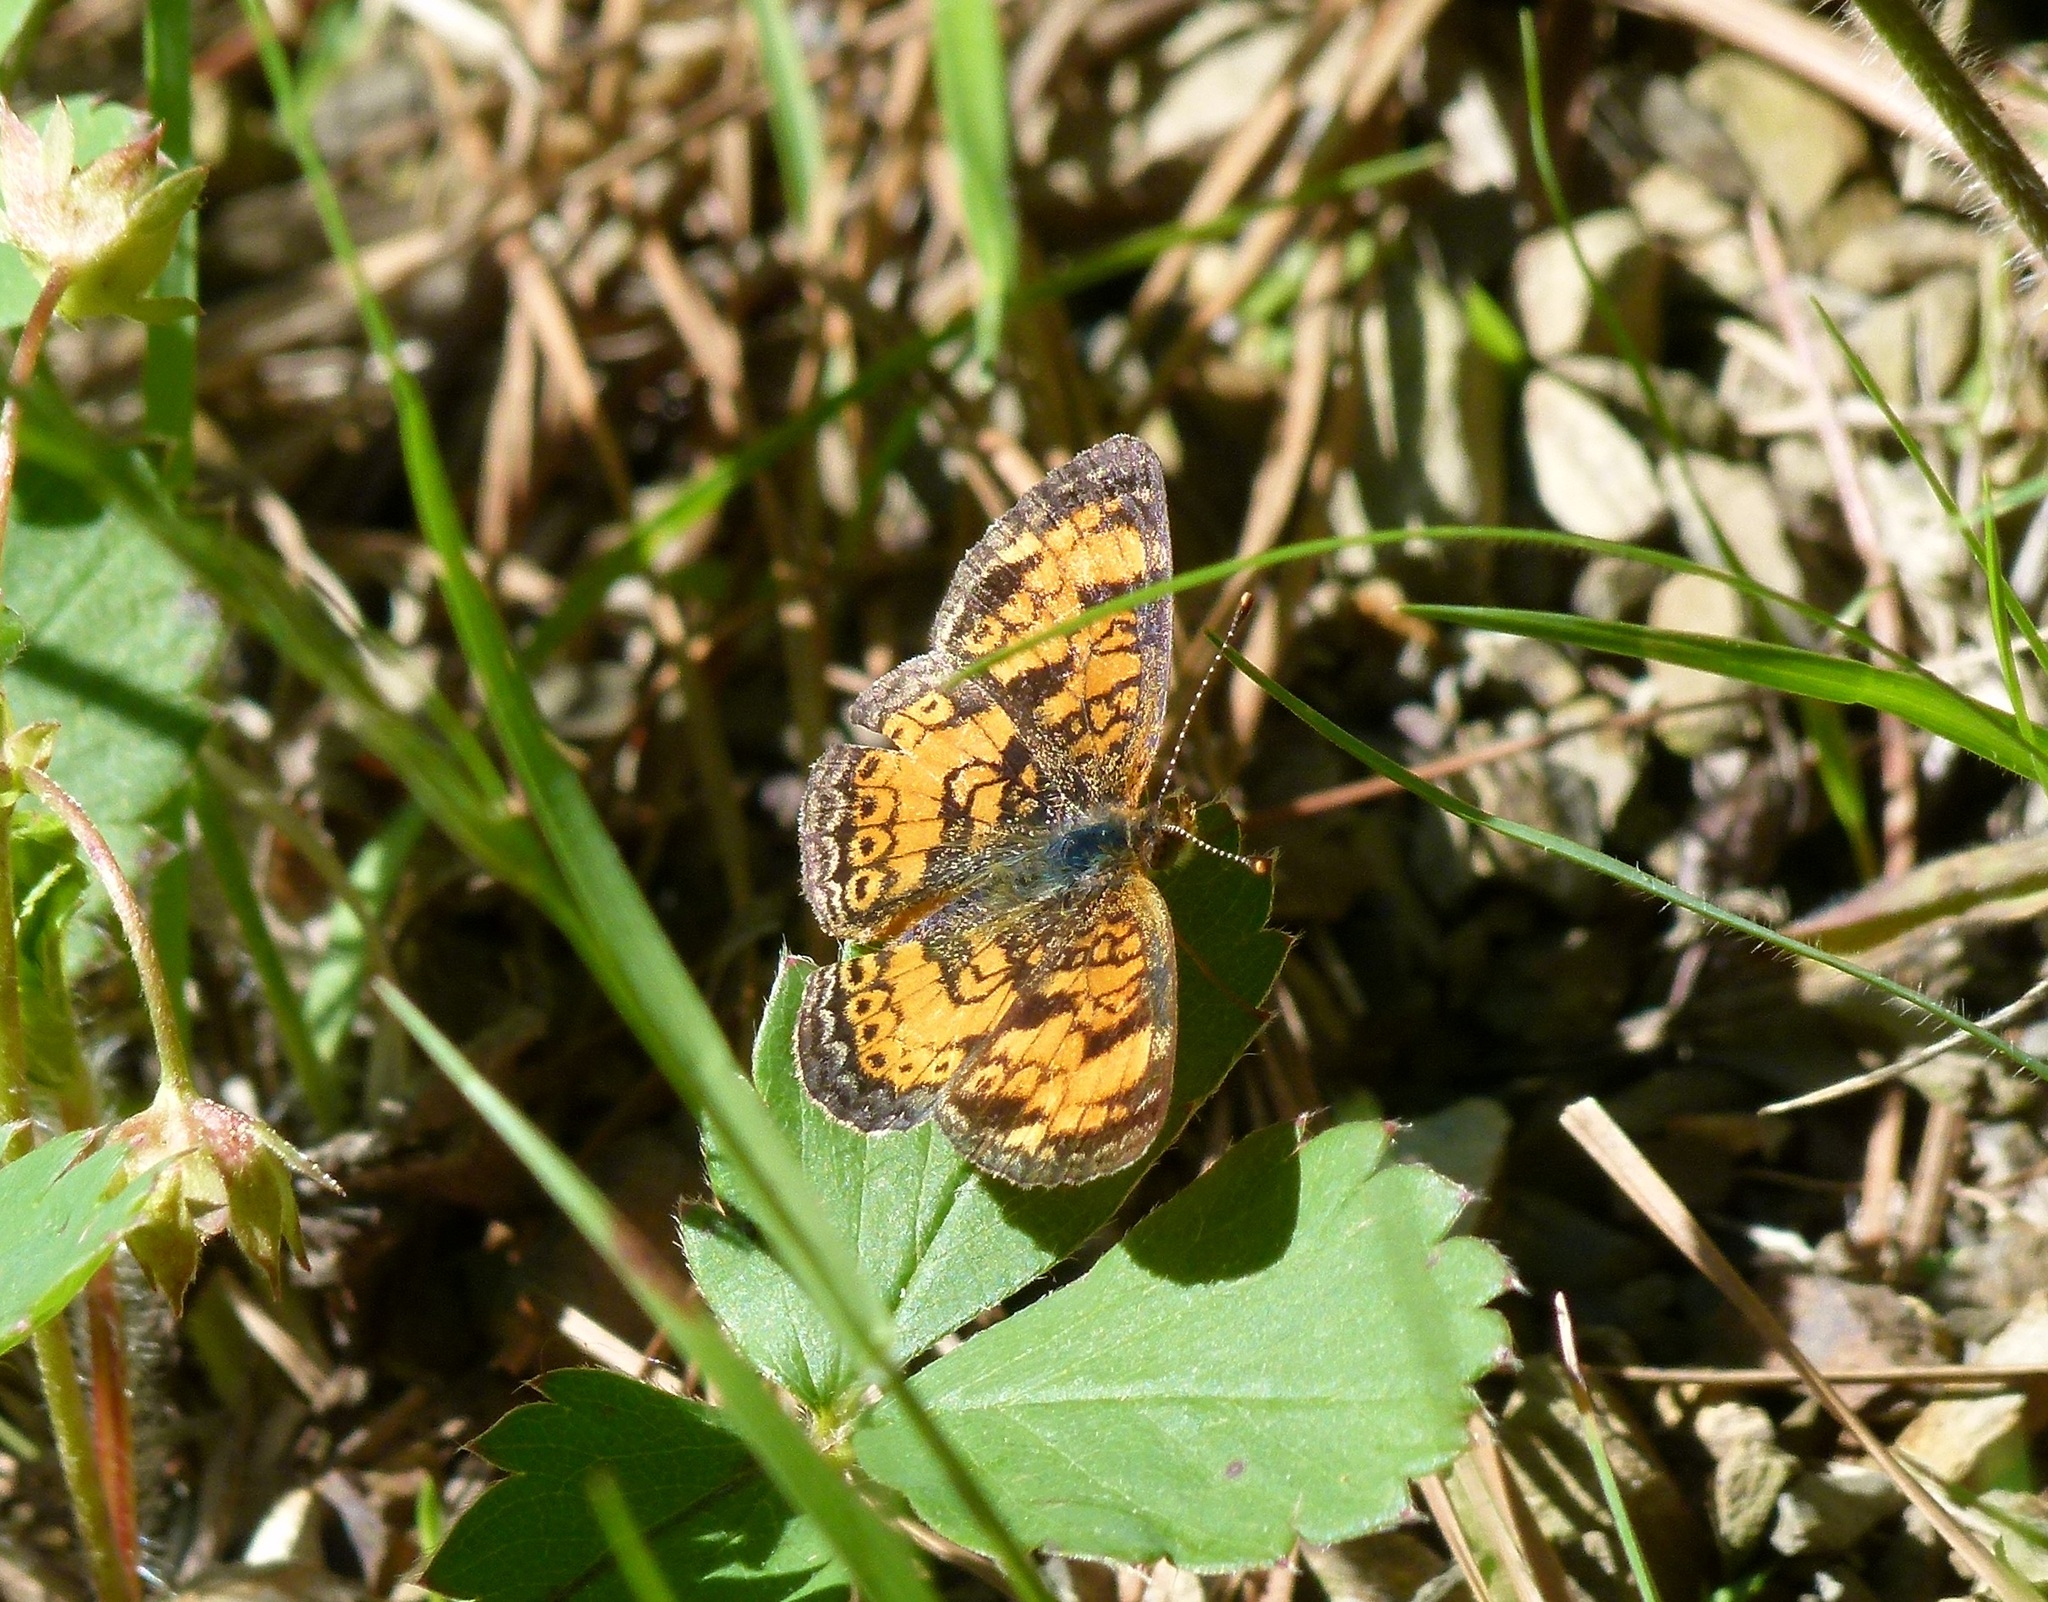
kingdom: Animalia
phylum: Arthropoda
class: Insecta
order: Lepidoptera
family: Nymphalidae
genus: Phyciodes
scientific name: Phyciodes tharos
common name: Pearl crescent
